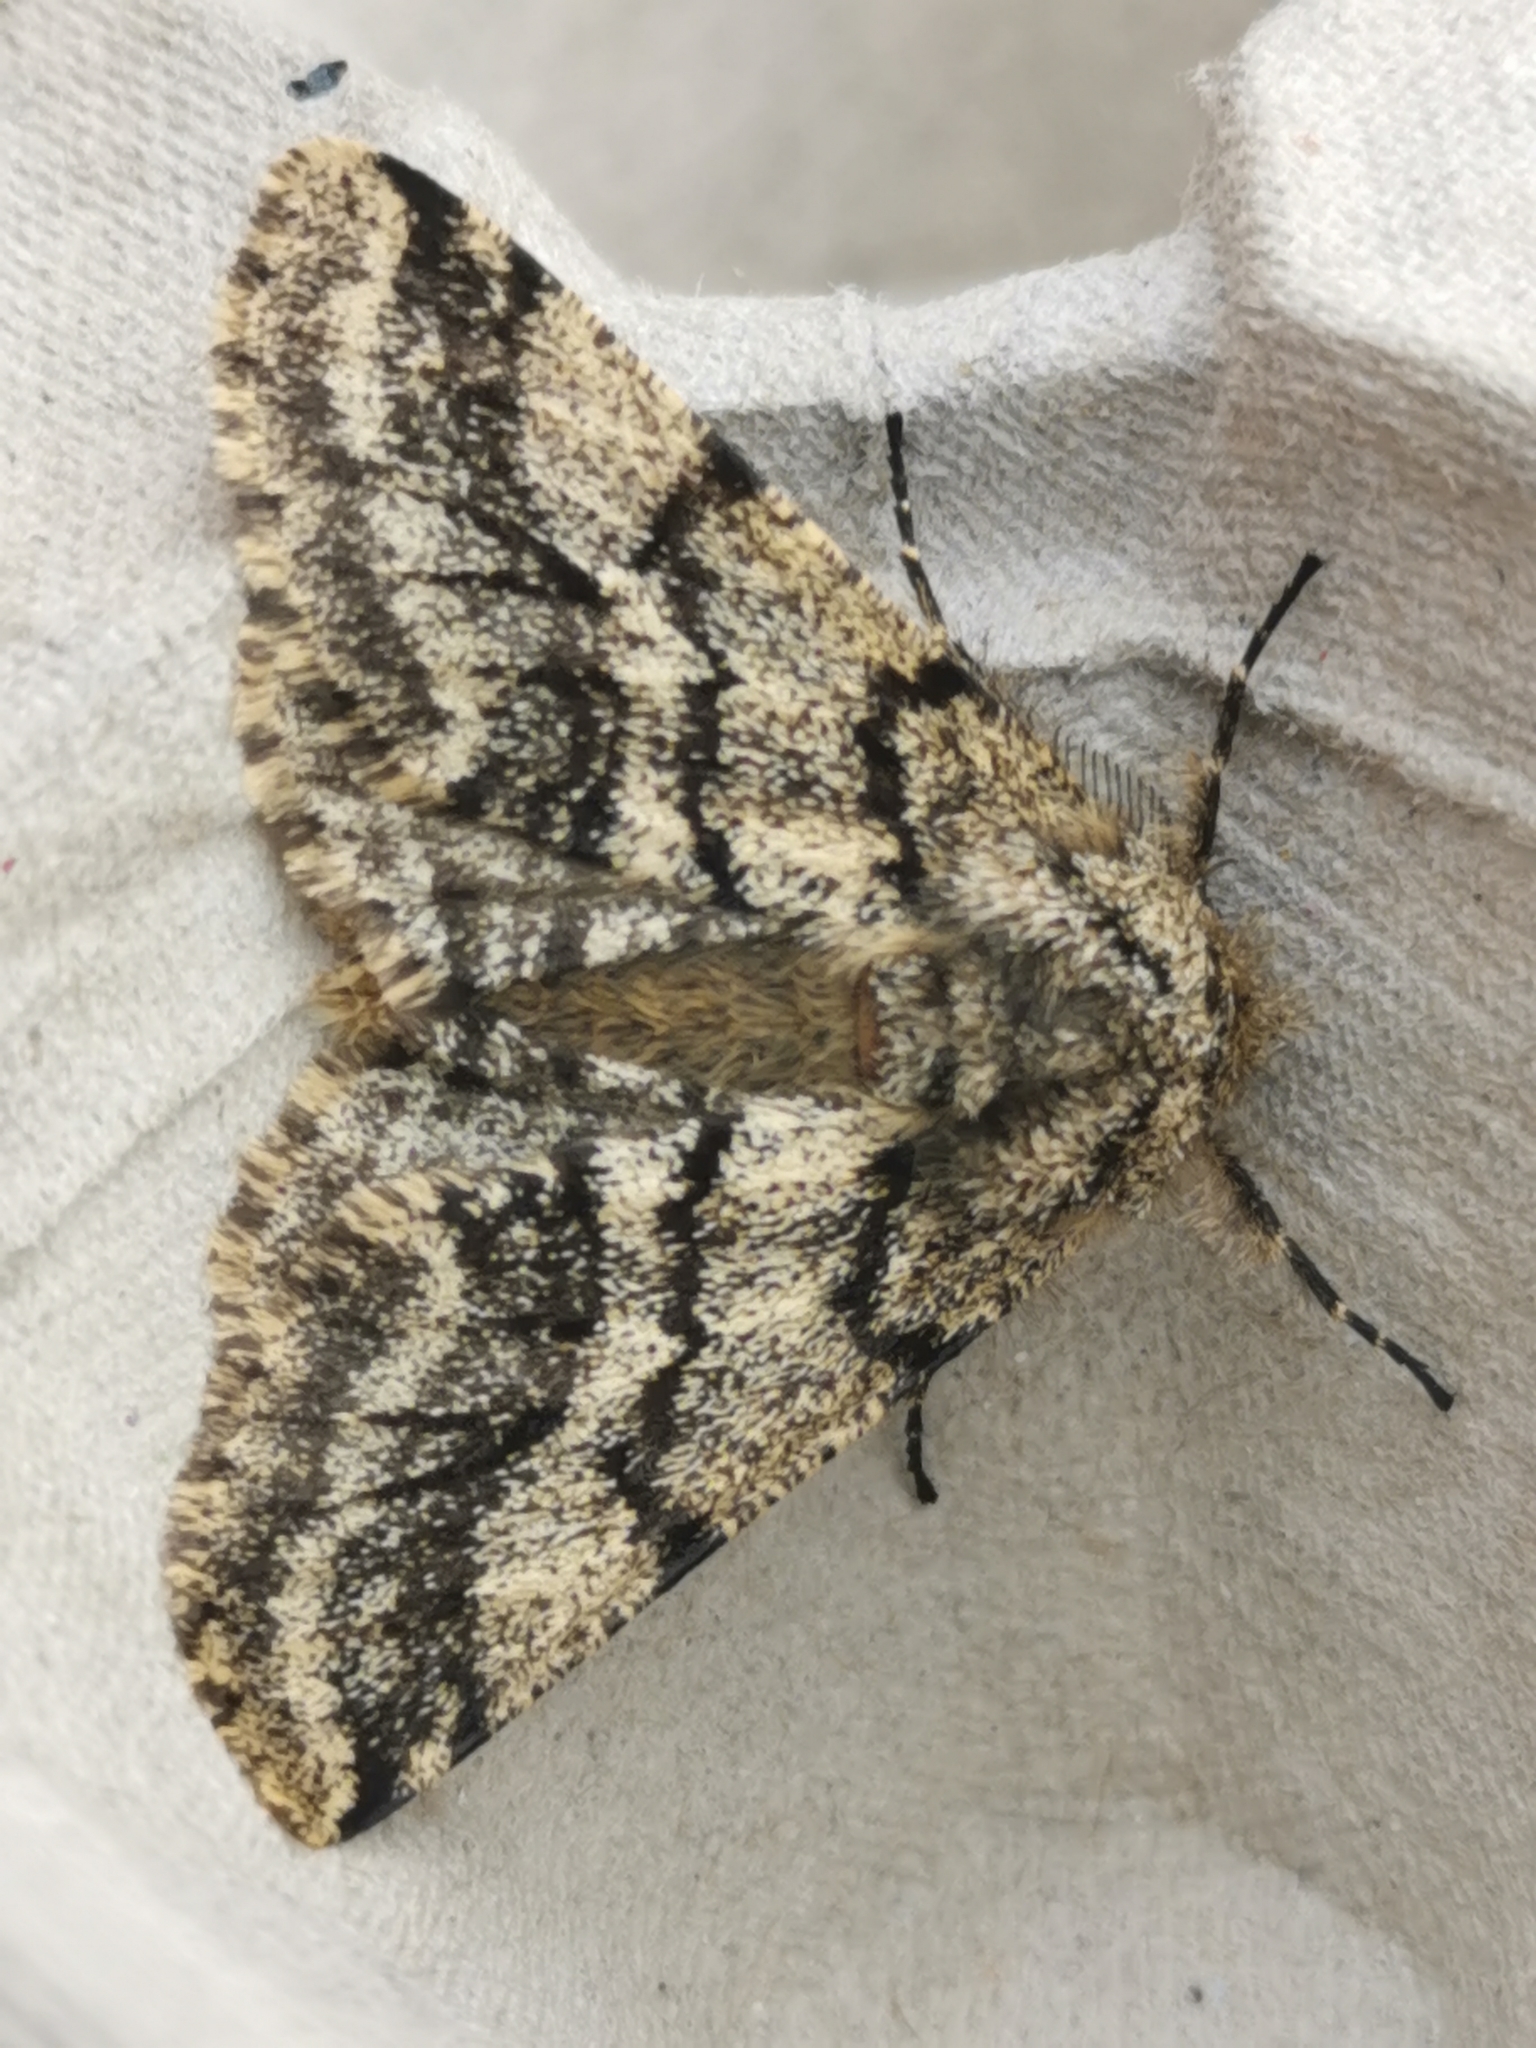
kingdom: Animalia
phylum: Arthropoda
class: Insecta
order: Lepidoptera
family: Geometridae
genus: Lycia
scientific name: Lycia hirtaria
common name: Brindled beauty
